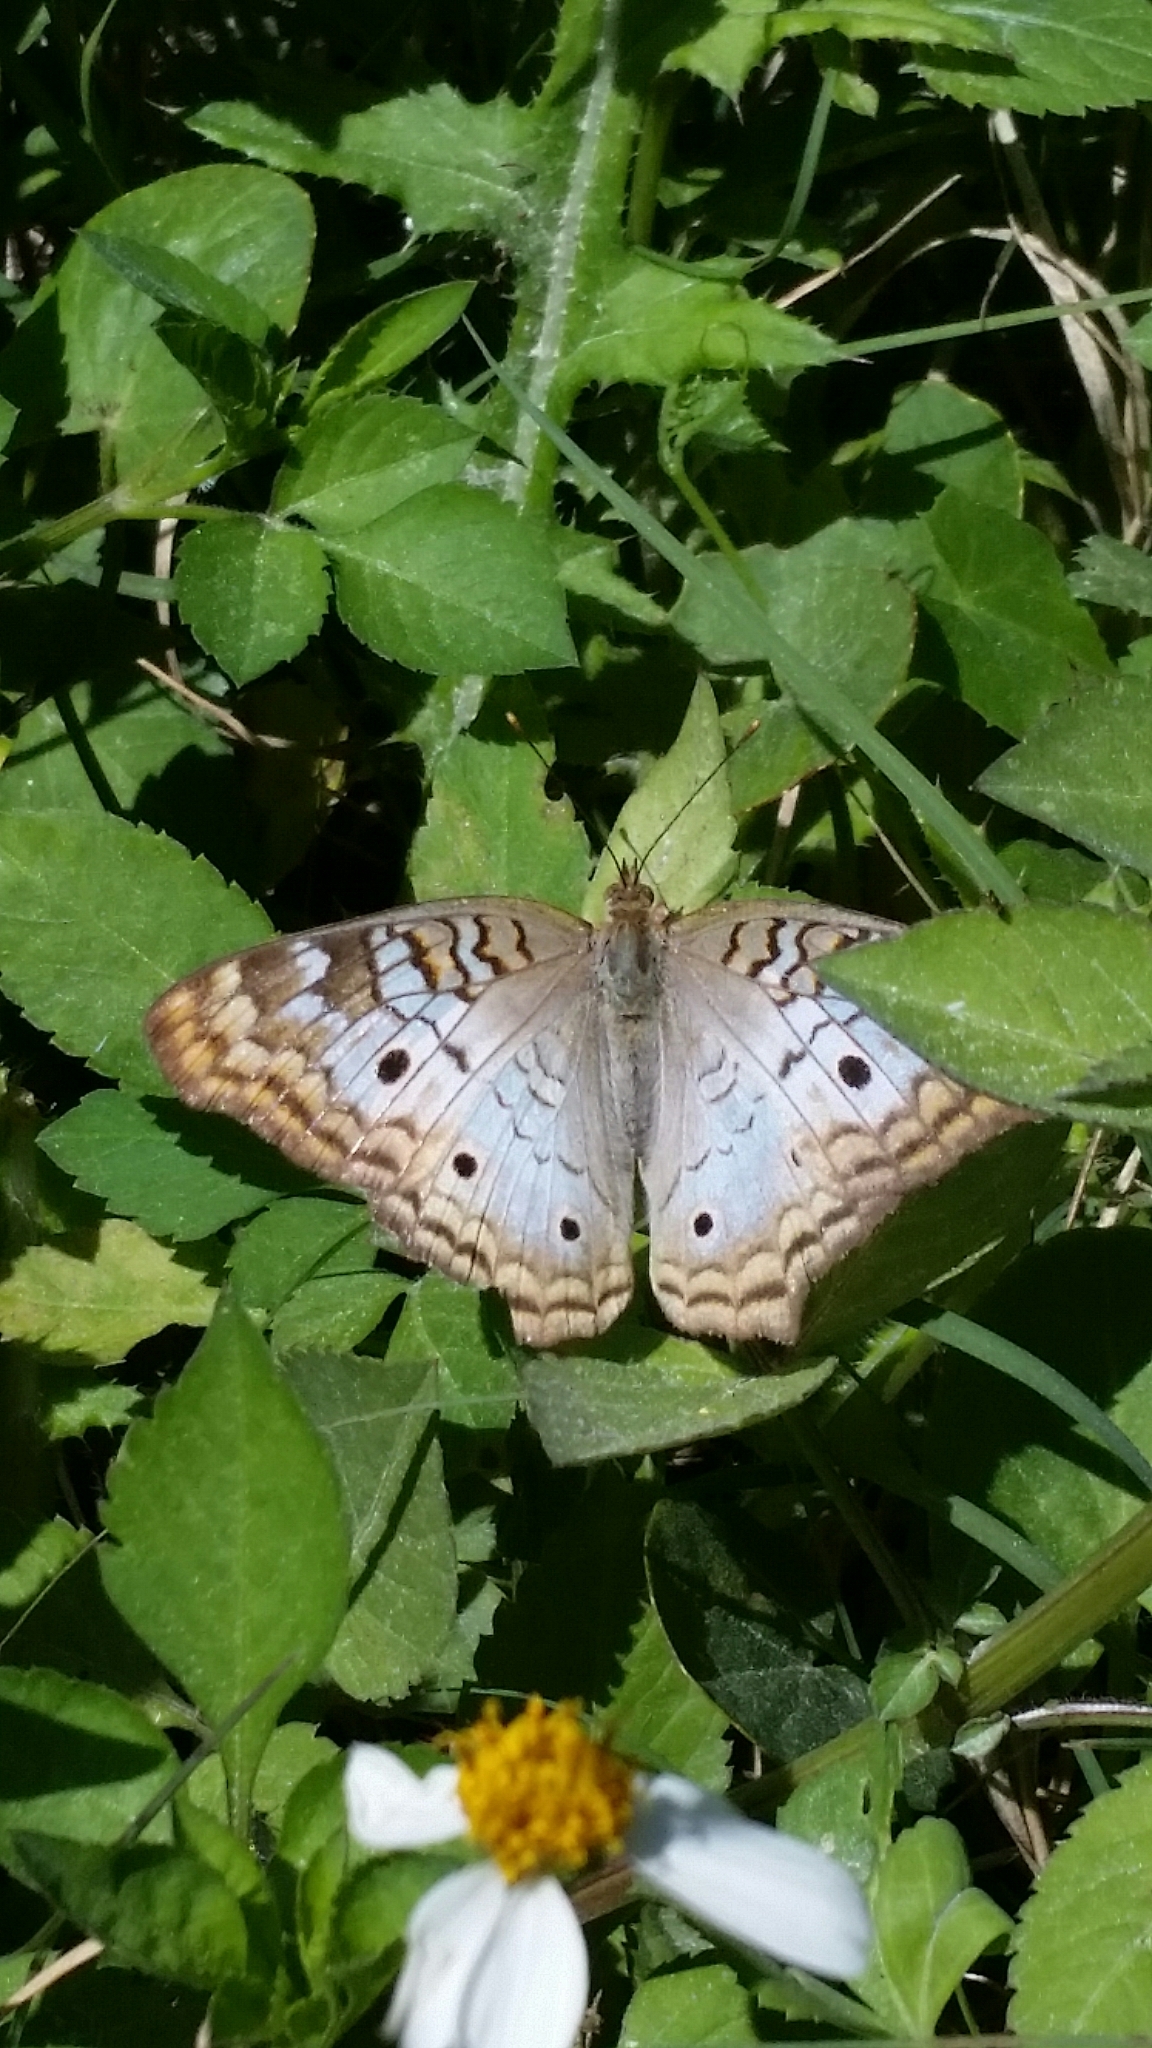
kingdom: Animalia
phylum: Arthropoda
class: Insecta
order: Lepidoptera
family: Nymphalidae
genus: Anartia
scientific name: Anartia jatrophae
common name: White peacock
